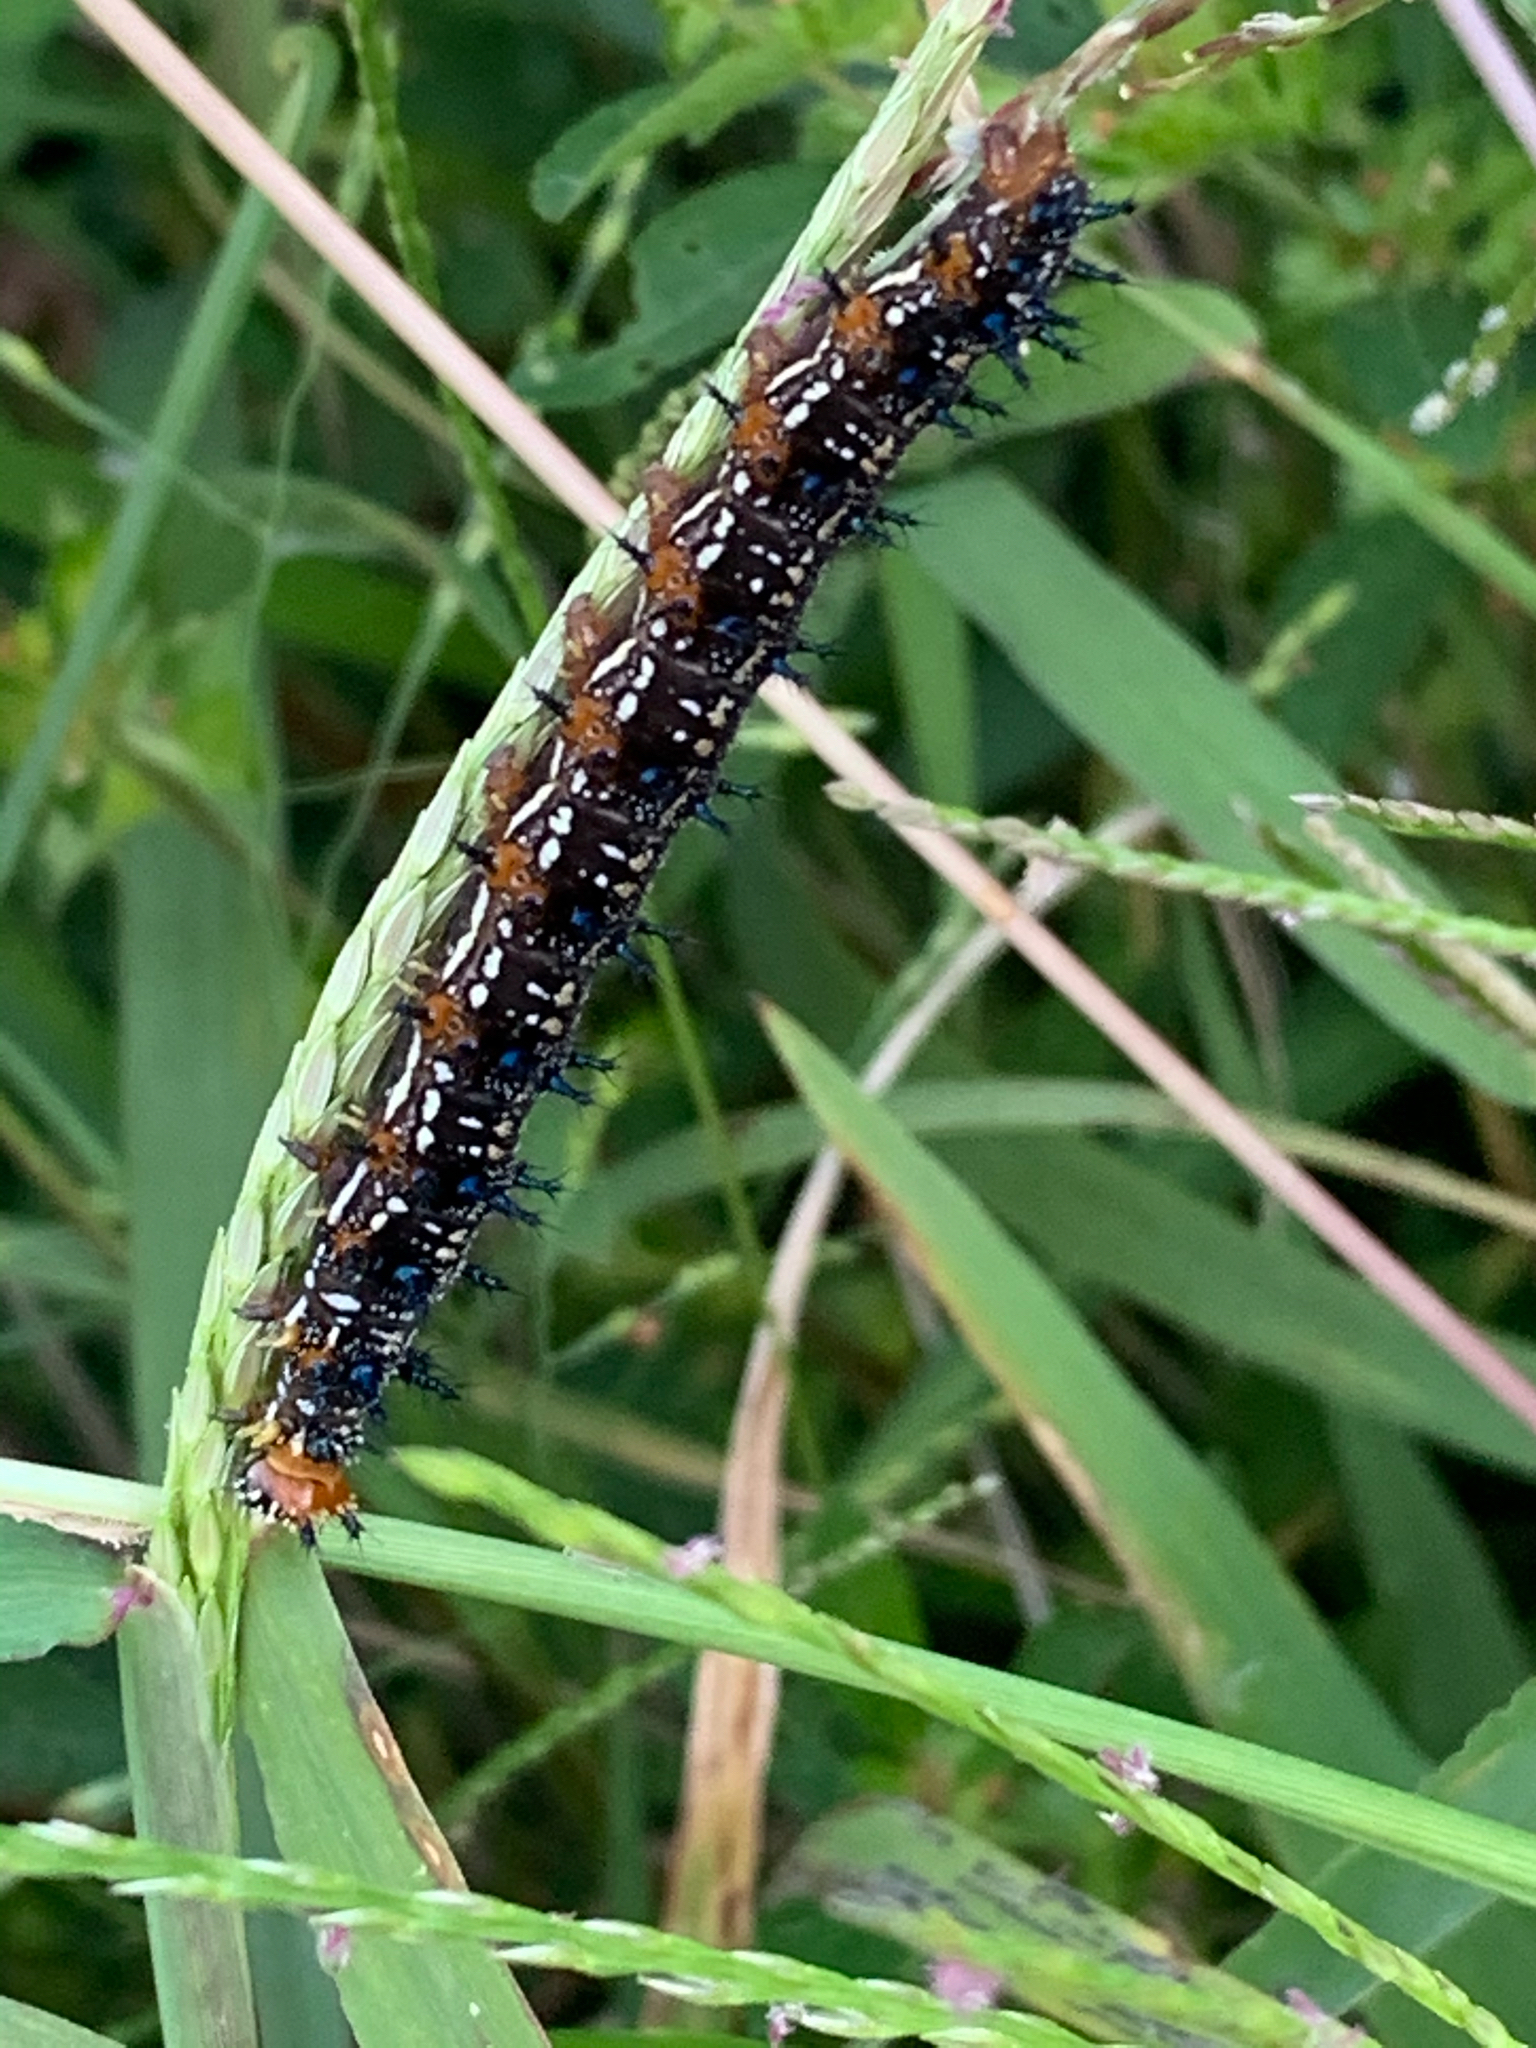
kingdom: Animalia
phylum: Arthropoda
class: Insecta
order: Lepidoptera
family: Nymphalidae
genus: Junonia
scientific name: Junonia coenia
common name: Common buckeye
